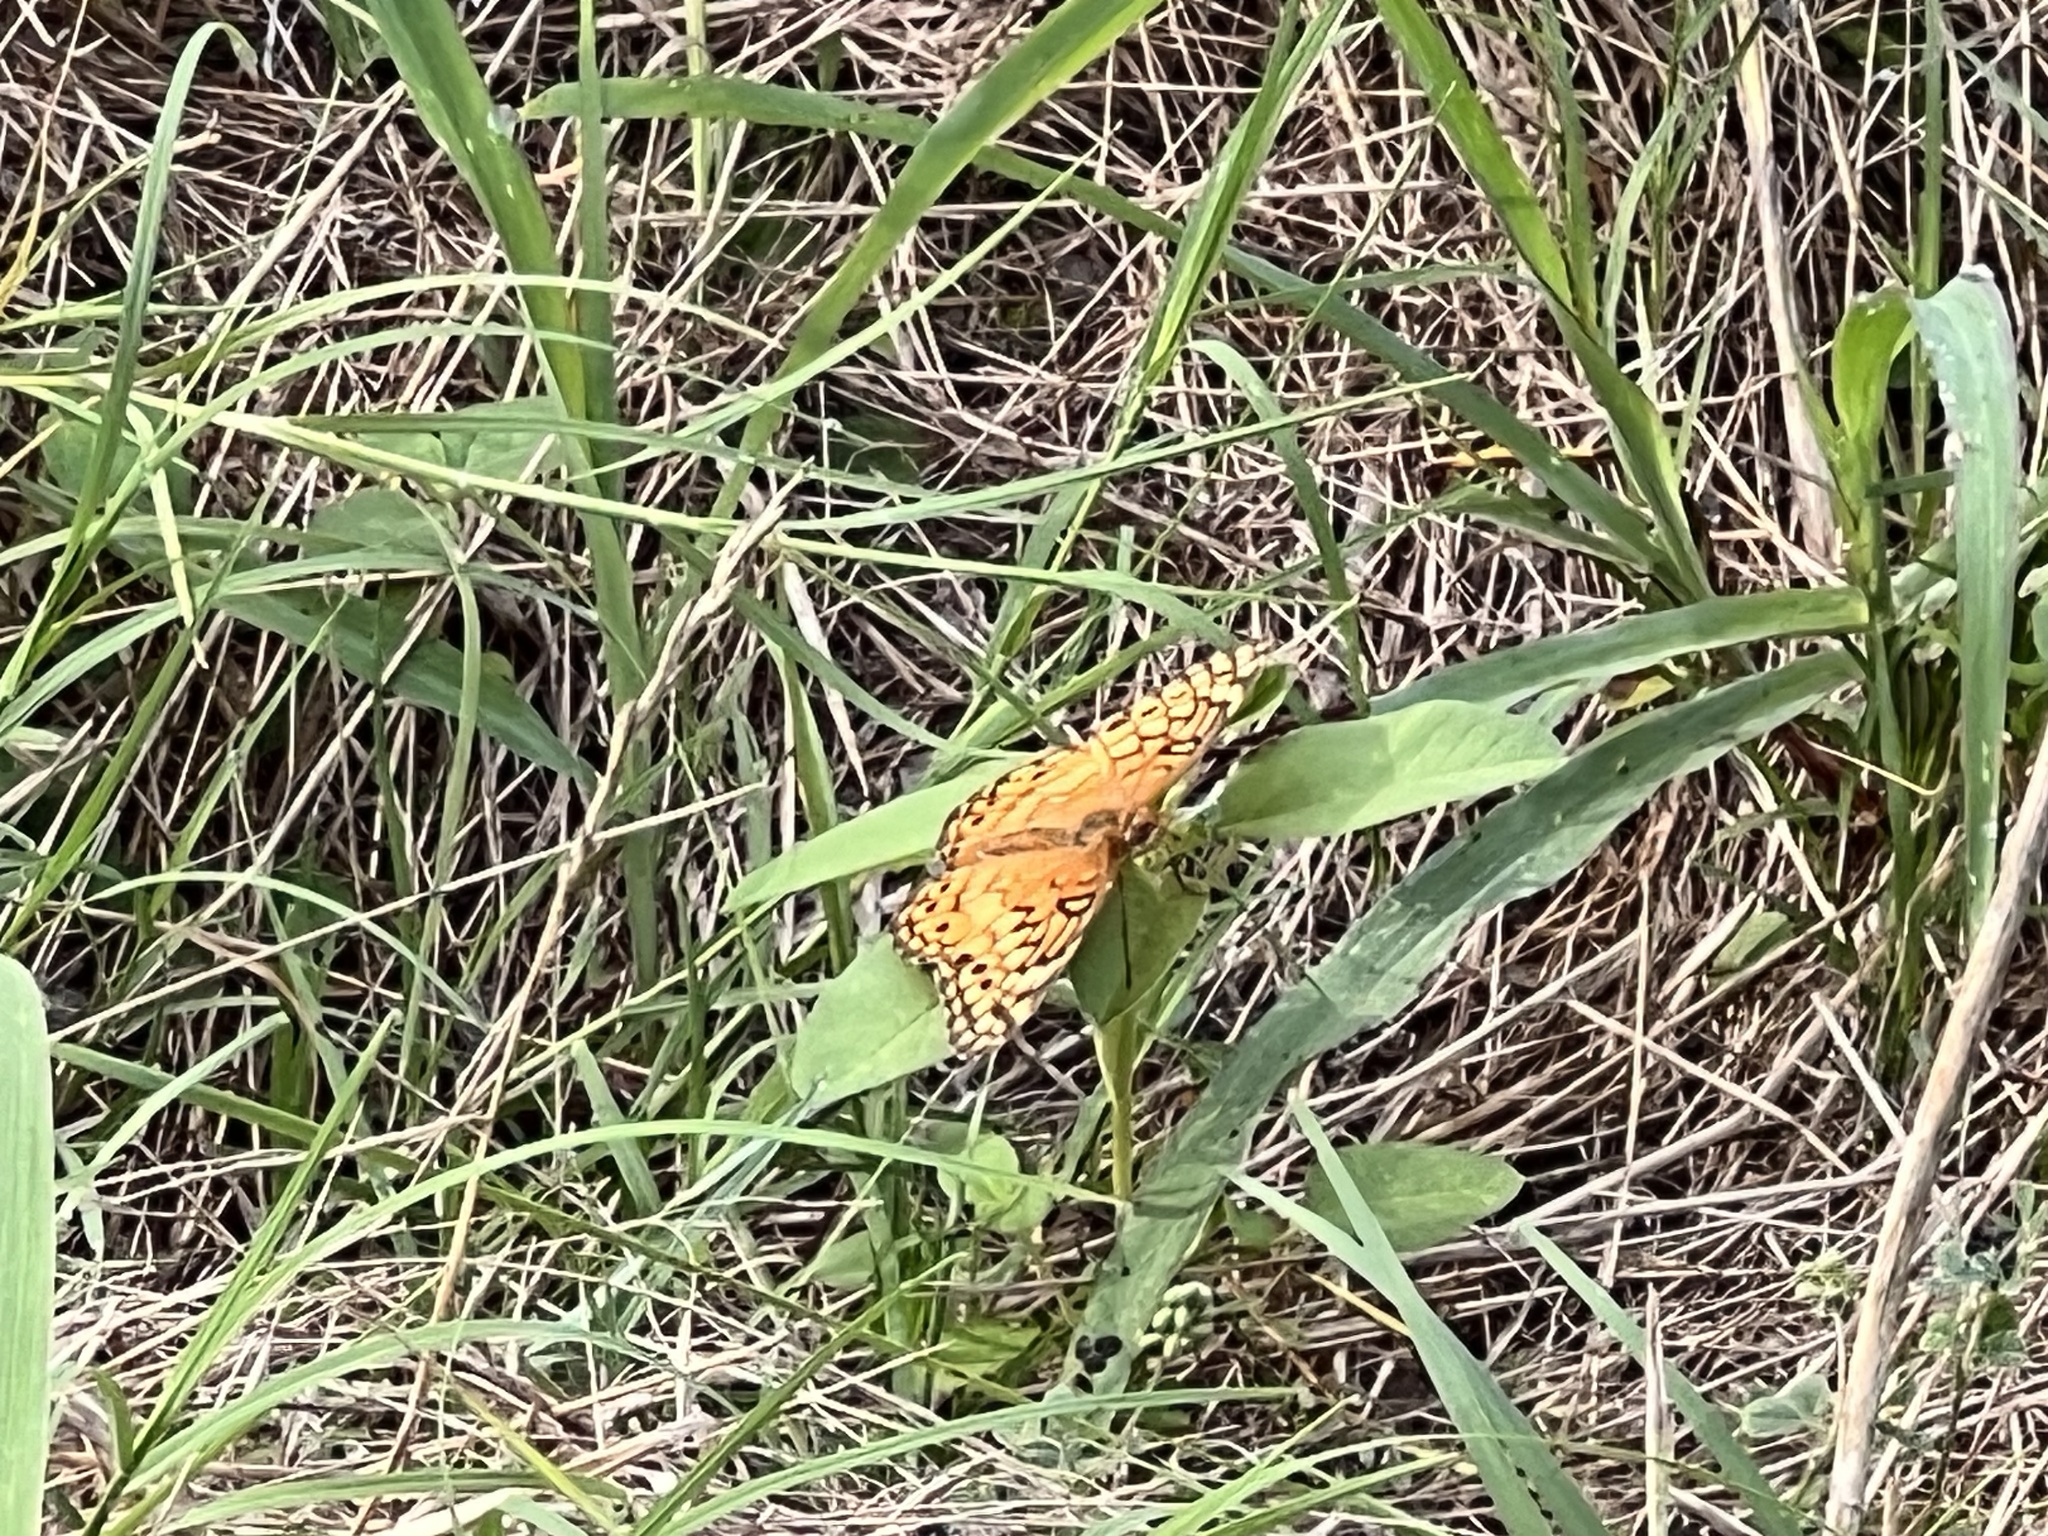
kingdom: Animalia
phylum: Arthropoda
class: Insecta
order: Lepidoptera
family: Nymphalidae
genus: Euptoieta
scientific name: Euptoieta claudia
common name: Variegated fritillary
